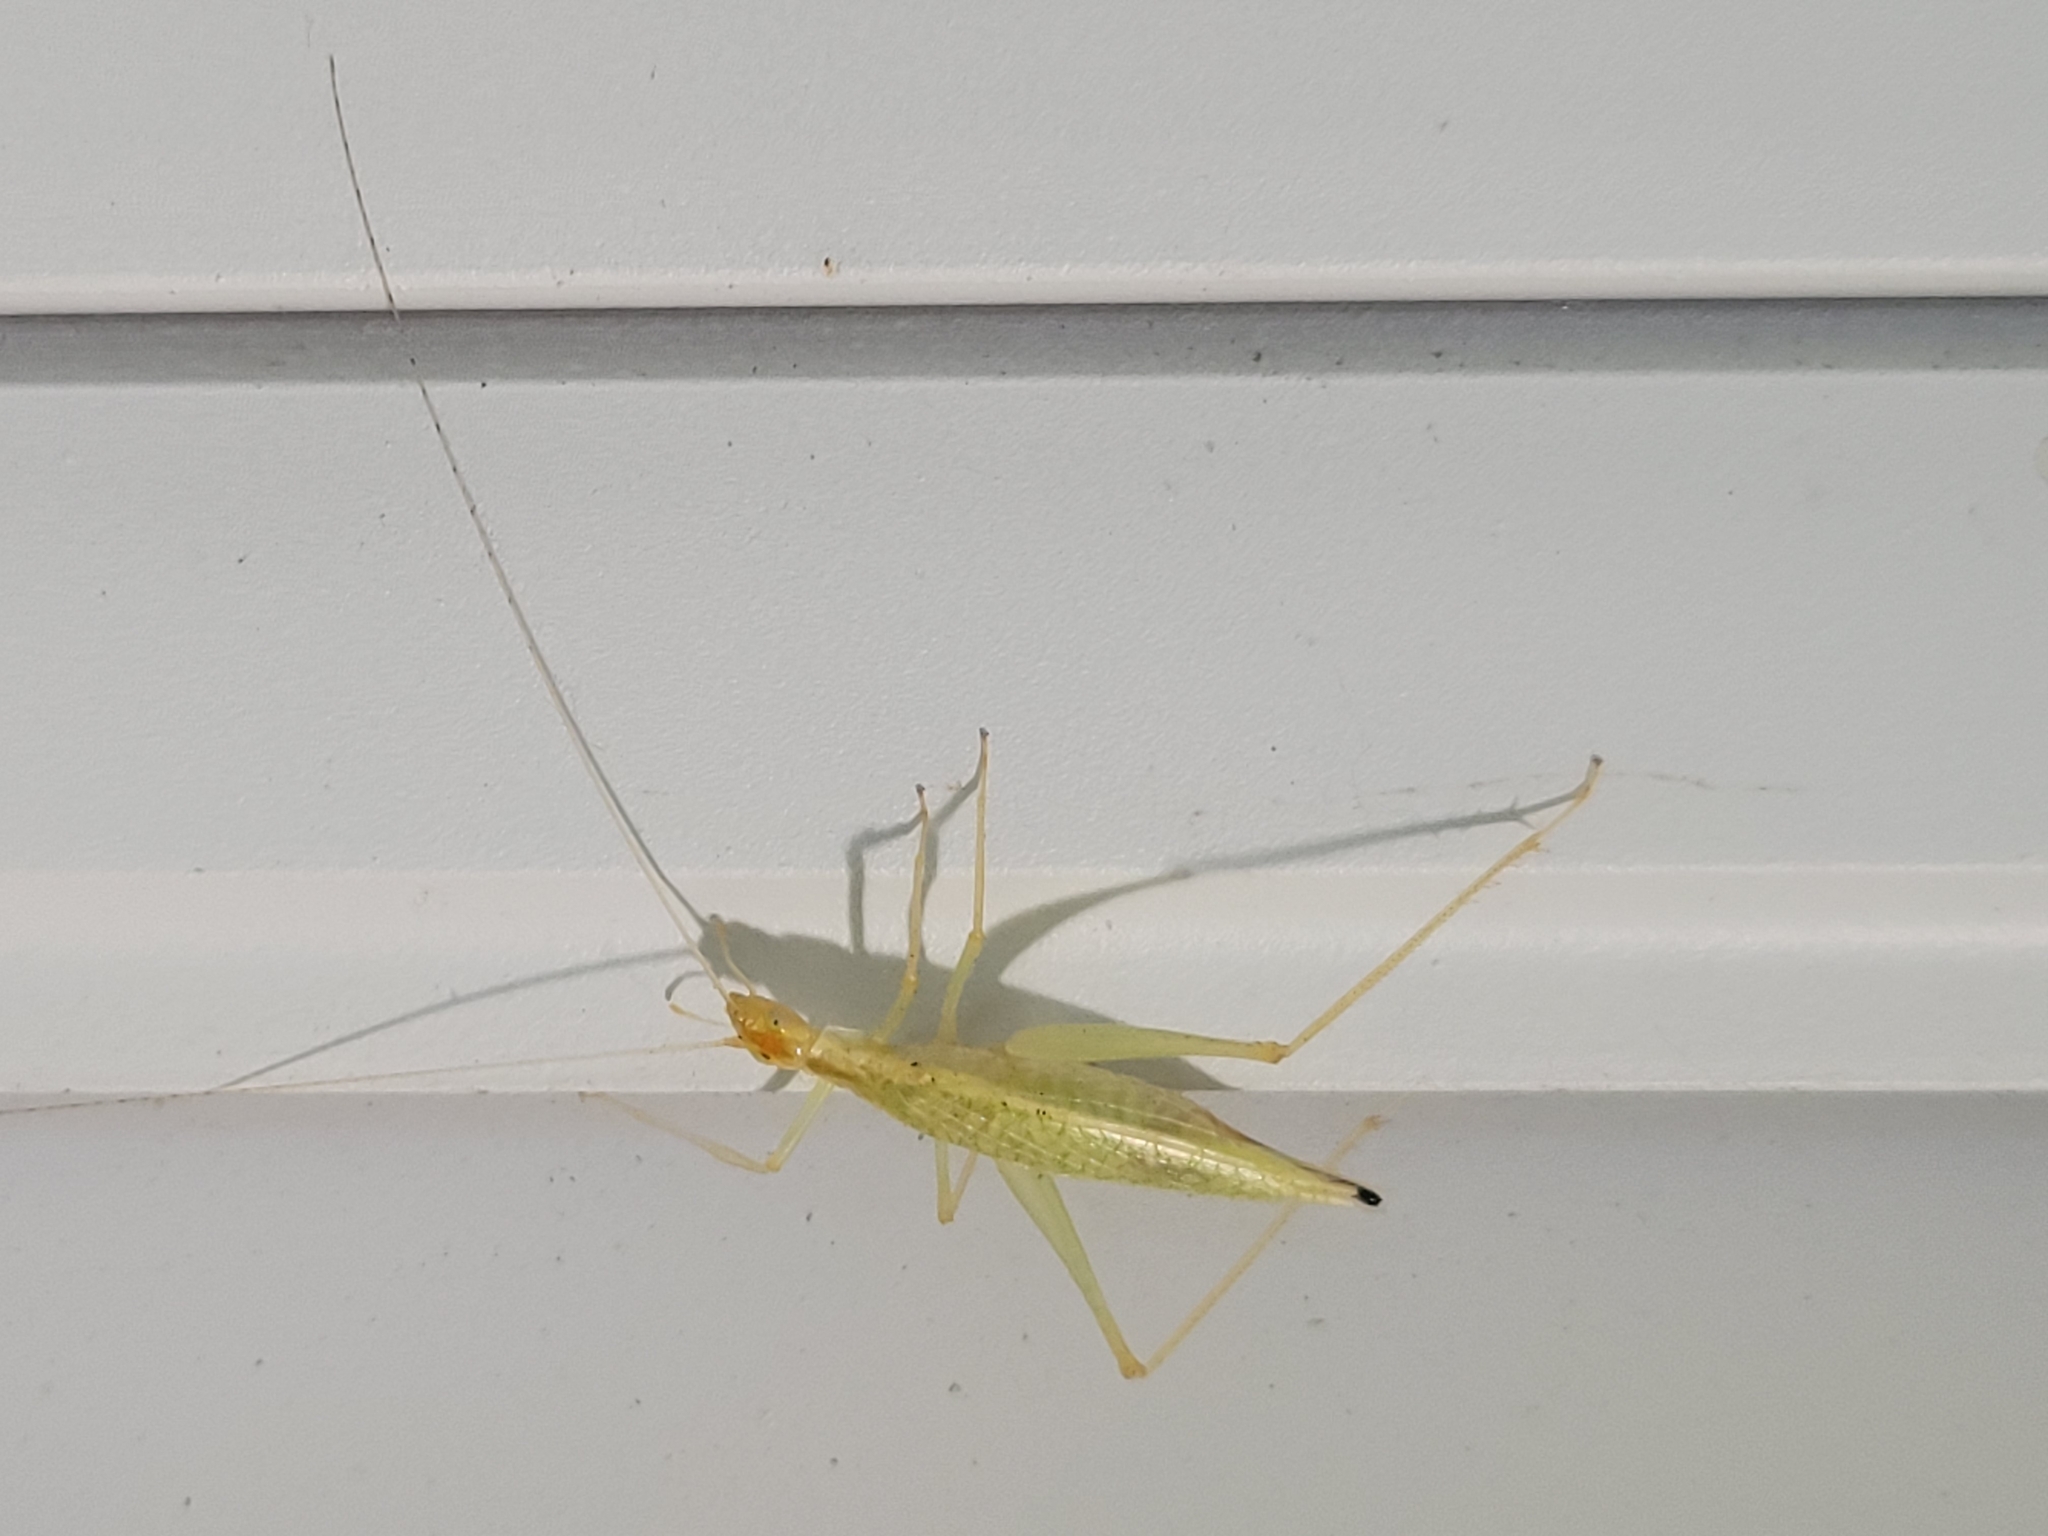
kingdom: Animalia
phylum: Arthropoda
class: Insecta
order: Orthoptera
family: Gryllidae
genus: Oecanthus
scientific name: Oecanthus niveus
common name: Narrow-winged tree cricket
